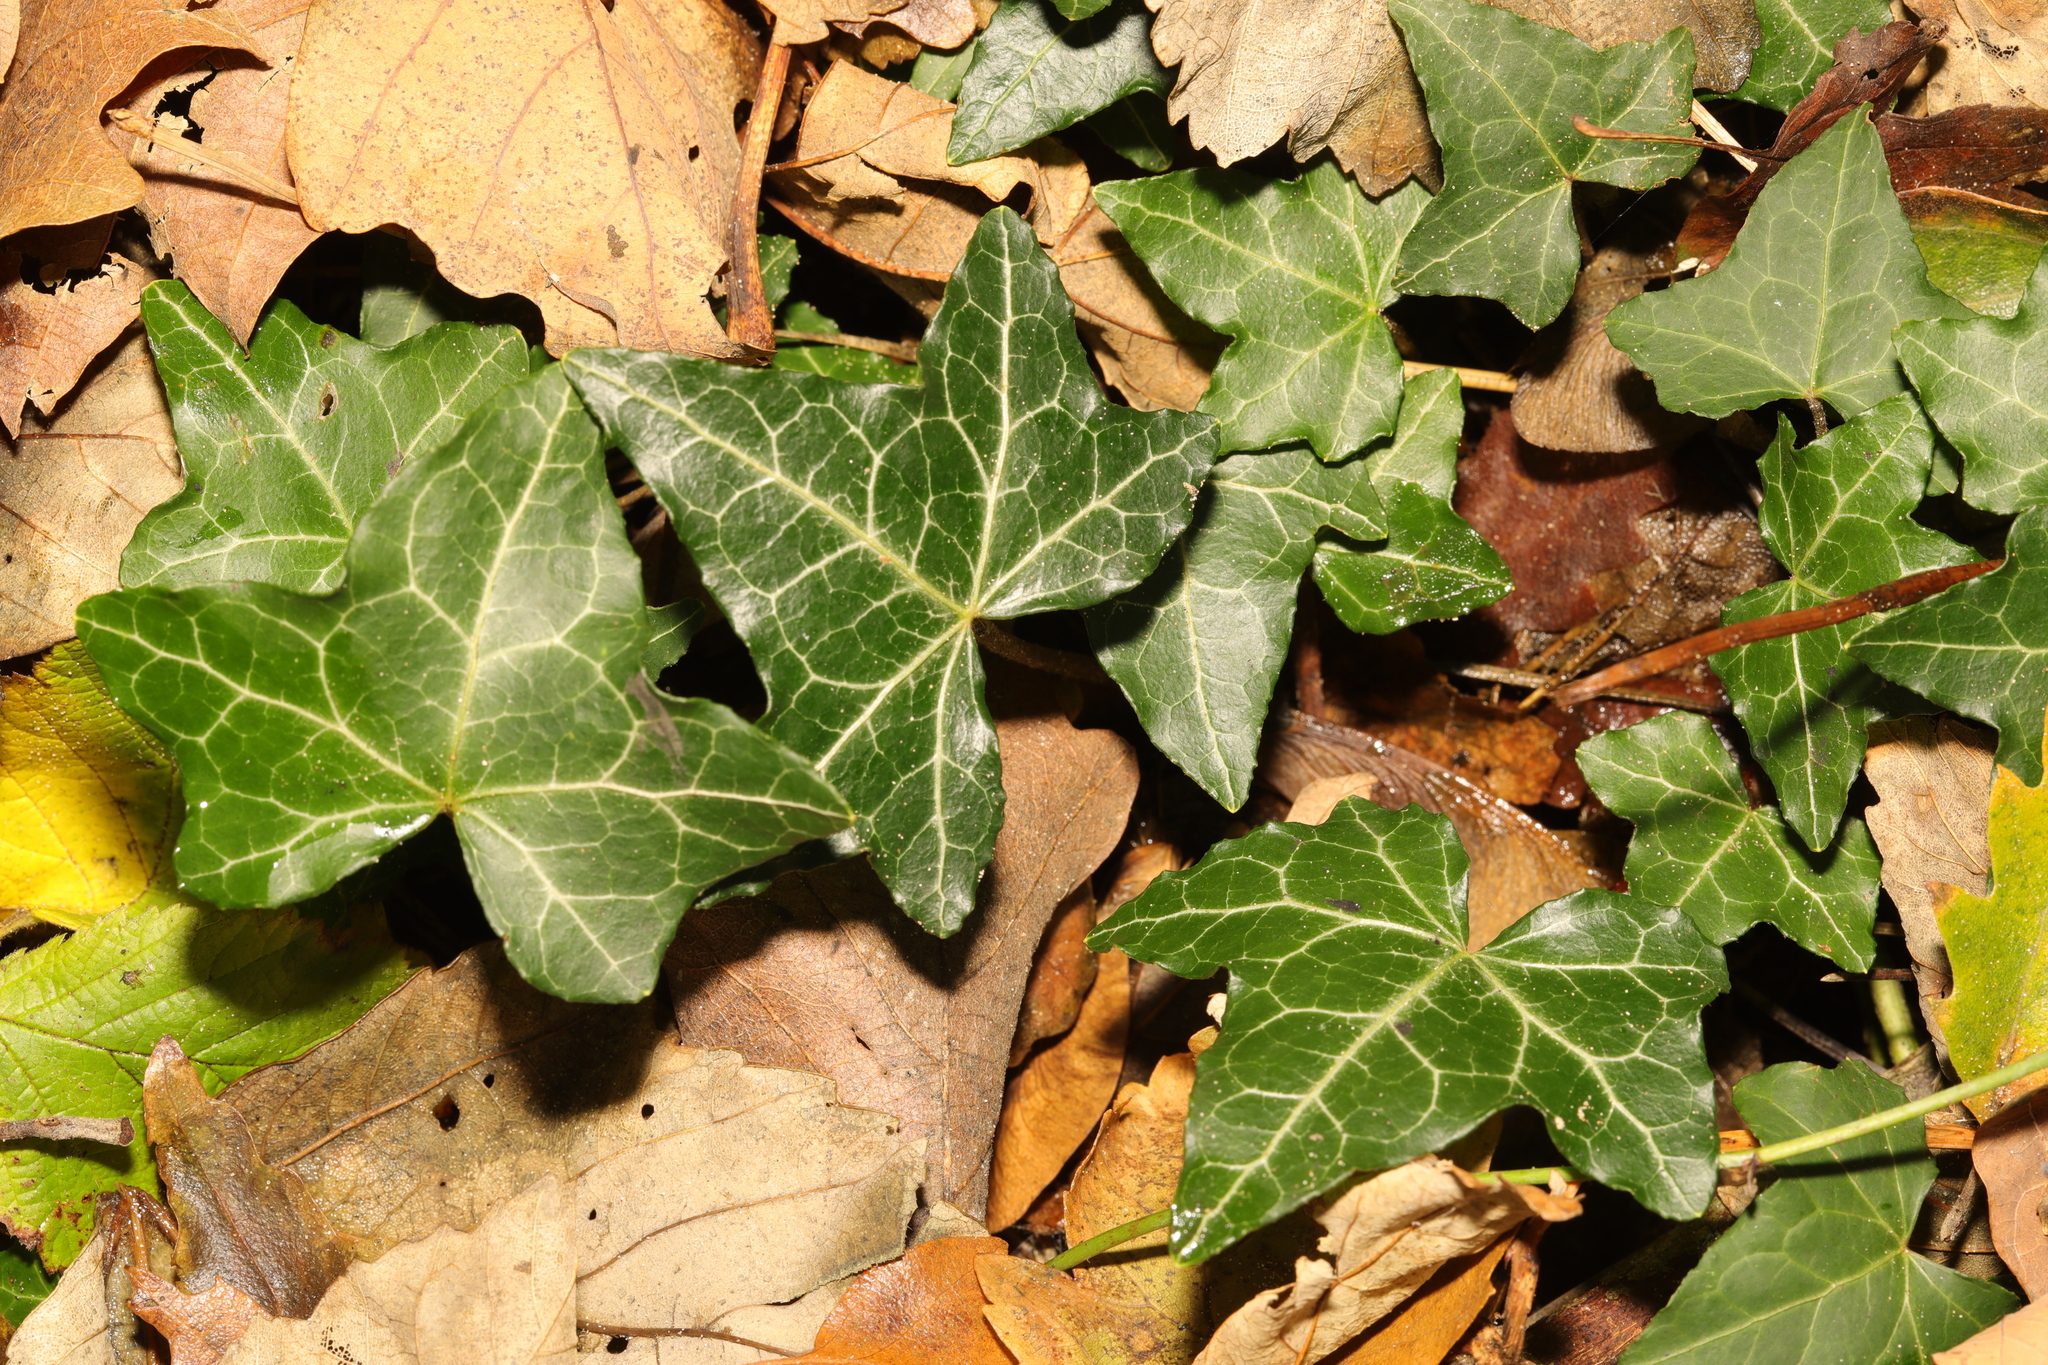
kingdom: Plantae
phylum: Tracheophyta
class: Magnoliopsida
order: Apiales
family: Araliaceae
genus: Hedera
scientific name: Hedera helix
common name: Ivy
